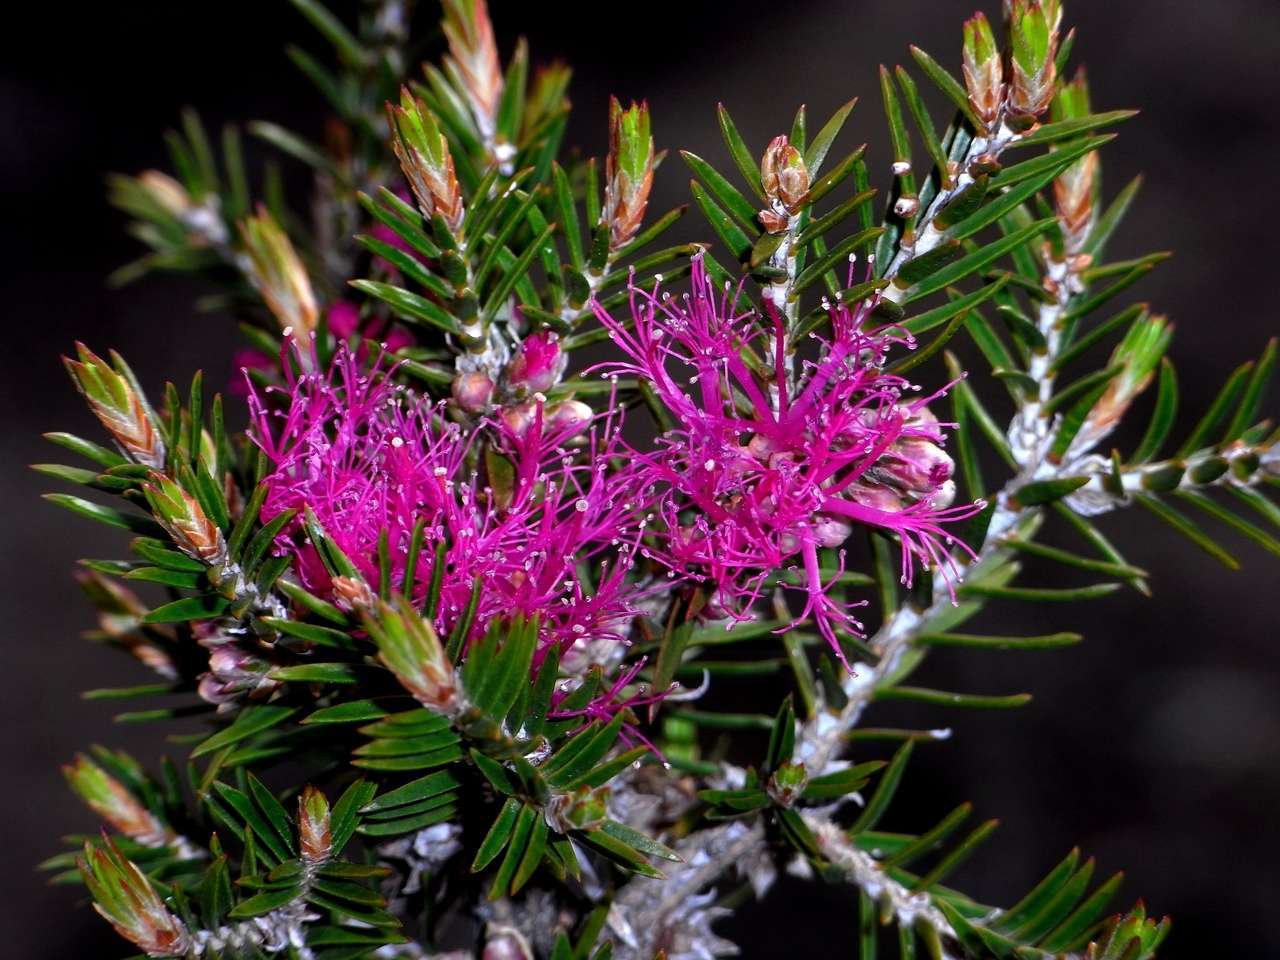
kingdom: Plantae
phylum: Tracheophyta
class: Magnoliopsida
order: Myrtales
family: Myrtaceae
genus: Melaleuca
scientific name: Melaleuca wilsonii
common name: Violet honey myrtle
